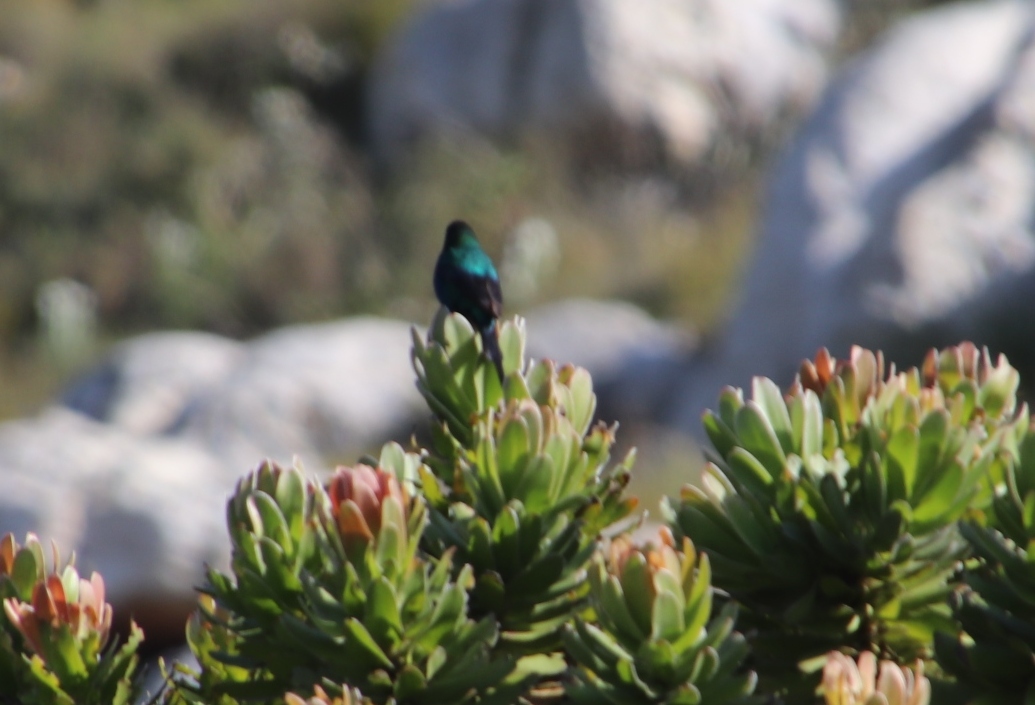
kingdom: Animalia
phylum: Chordata
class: Aves
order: Passeriformes
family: Nectariniidae
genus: Anthobaphes
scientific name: Anthobaphes violacea
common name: Orange-breasted sunbird
